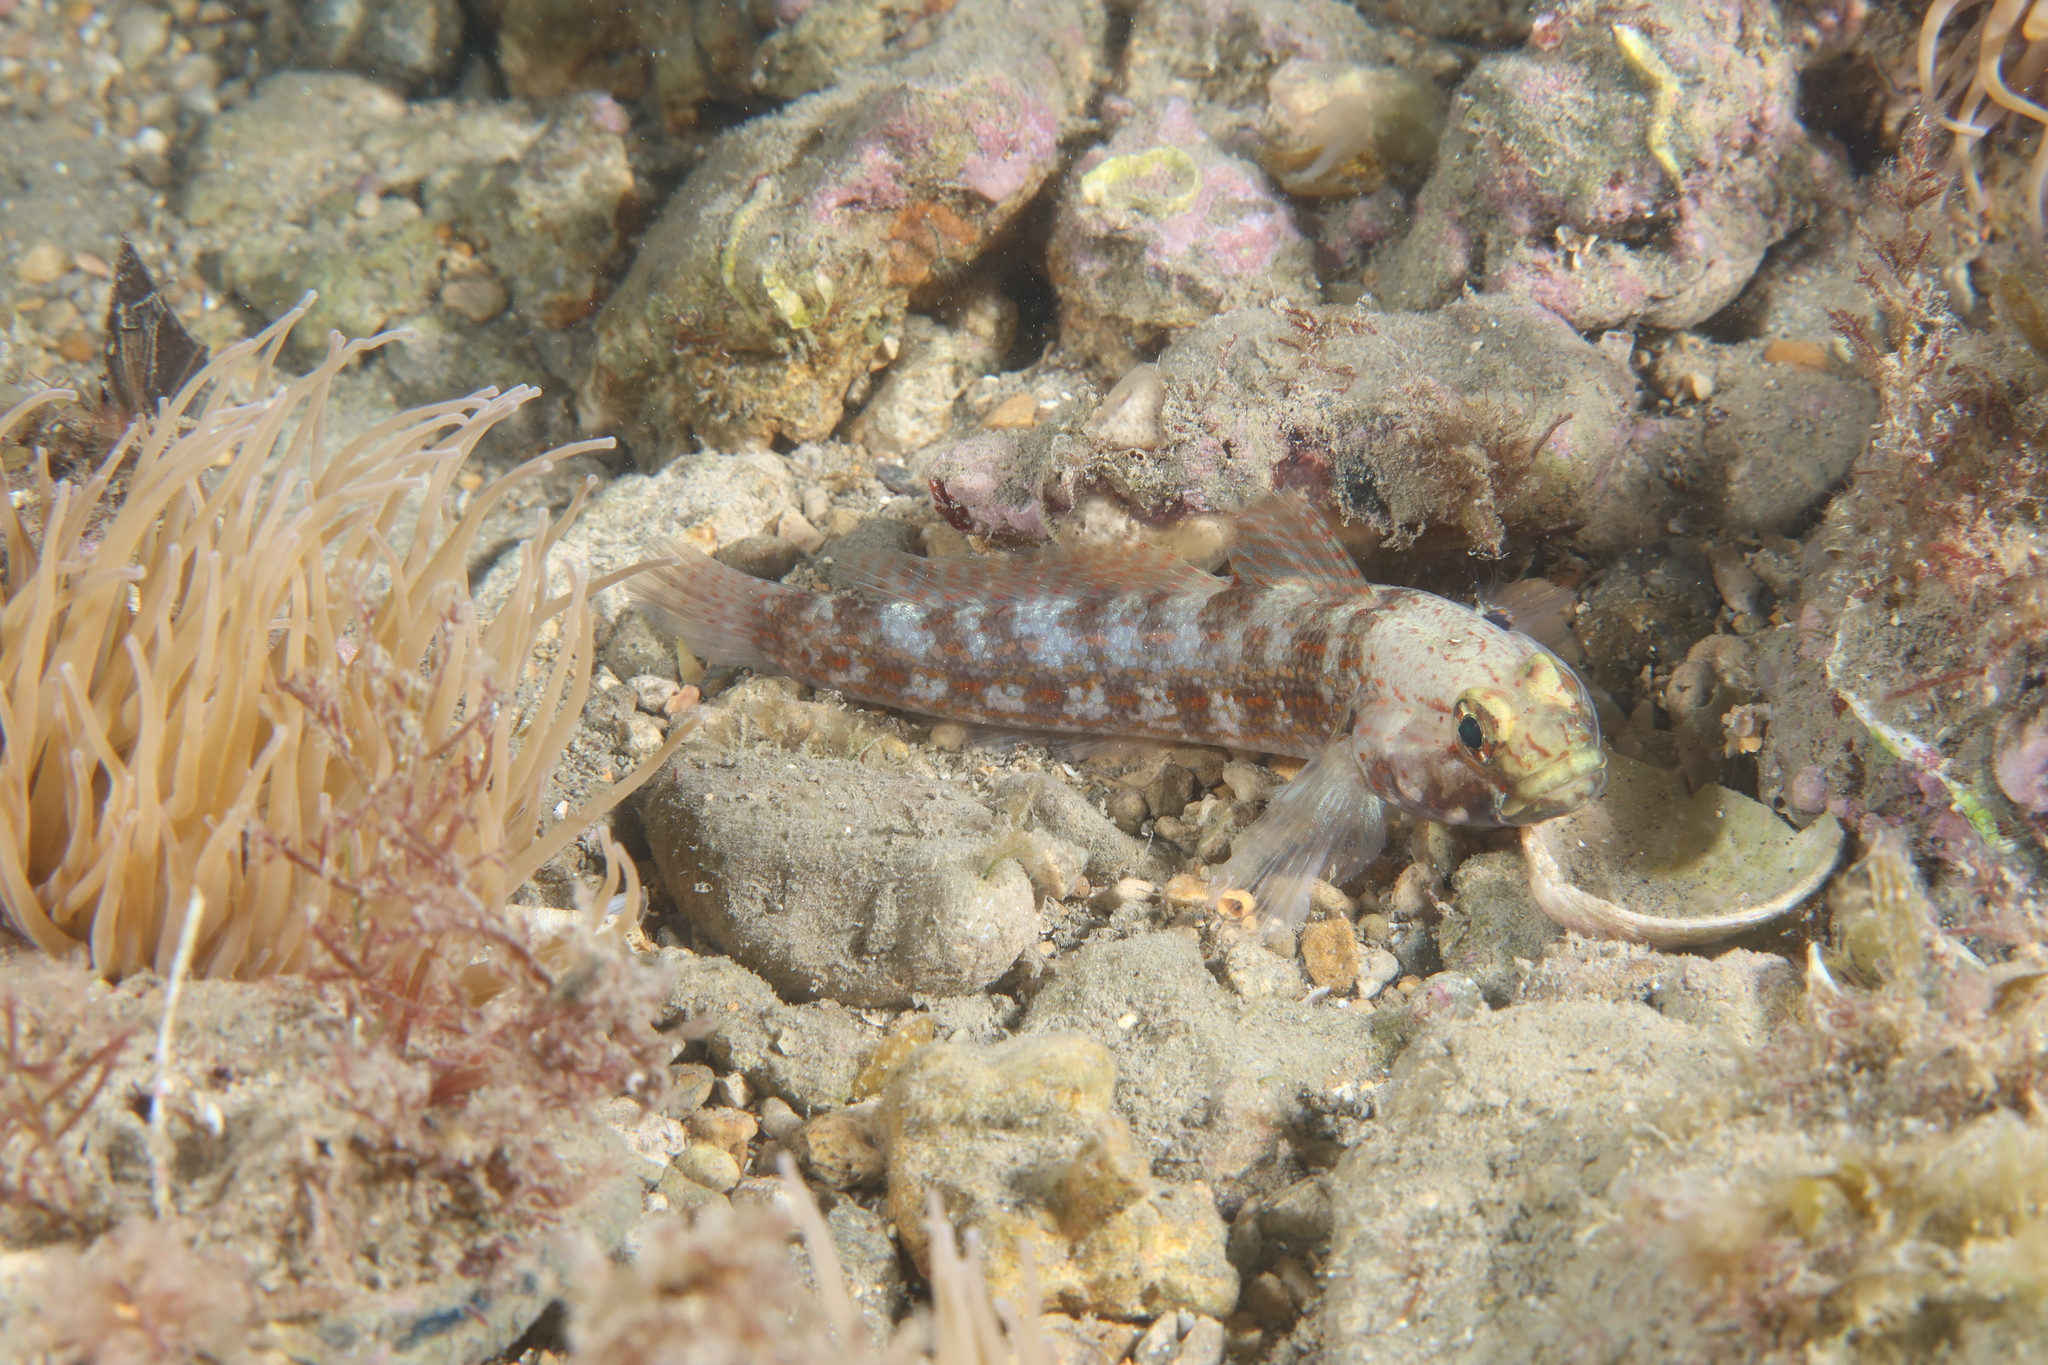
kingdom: Animalia
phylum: Chordata
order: Perciformes
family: Gobiidae
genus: Gobius
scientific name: Gobius xanthocephalus
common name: Golden goby
